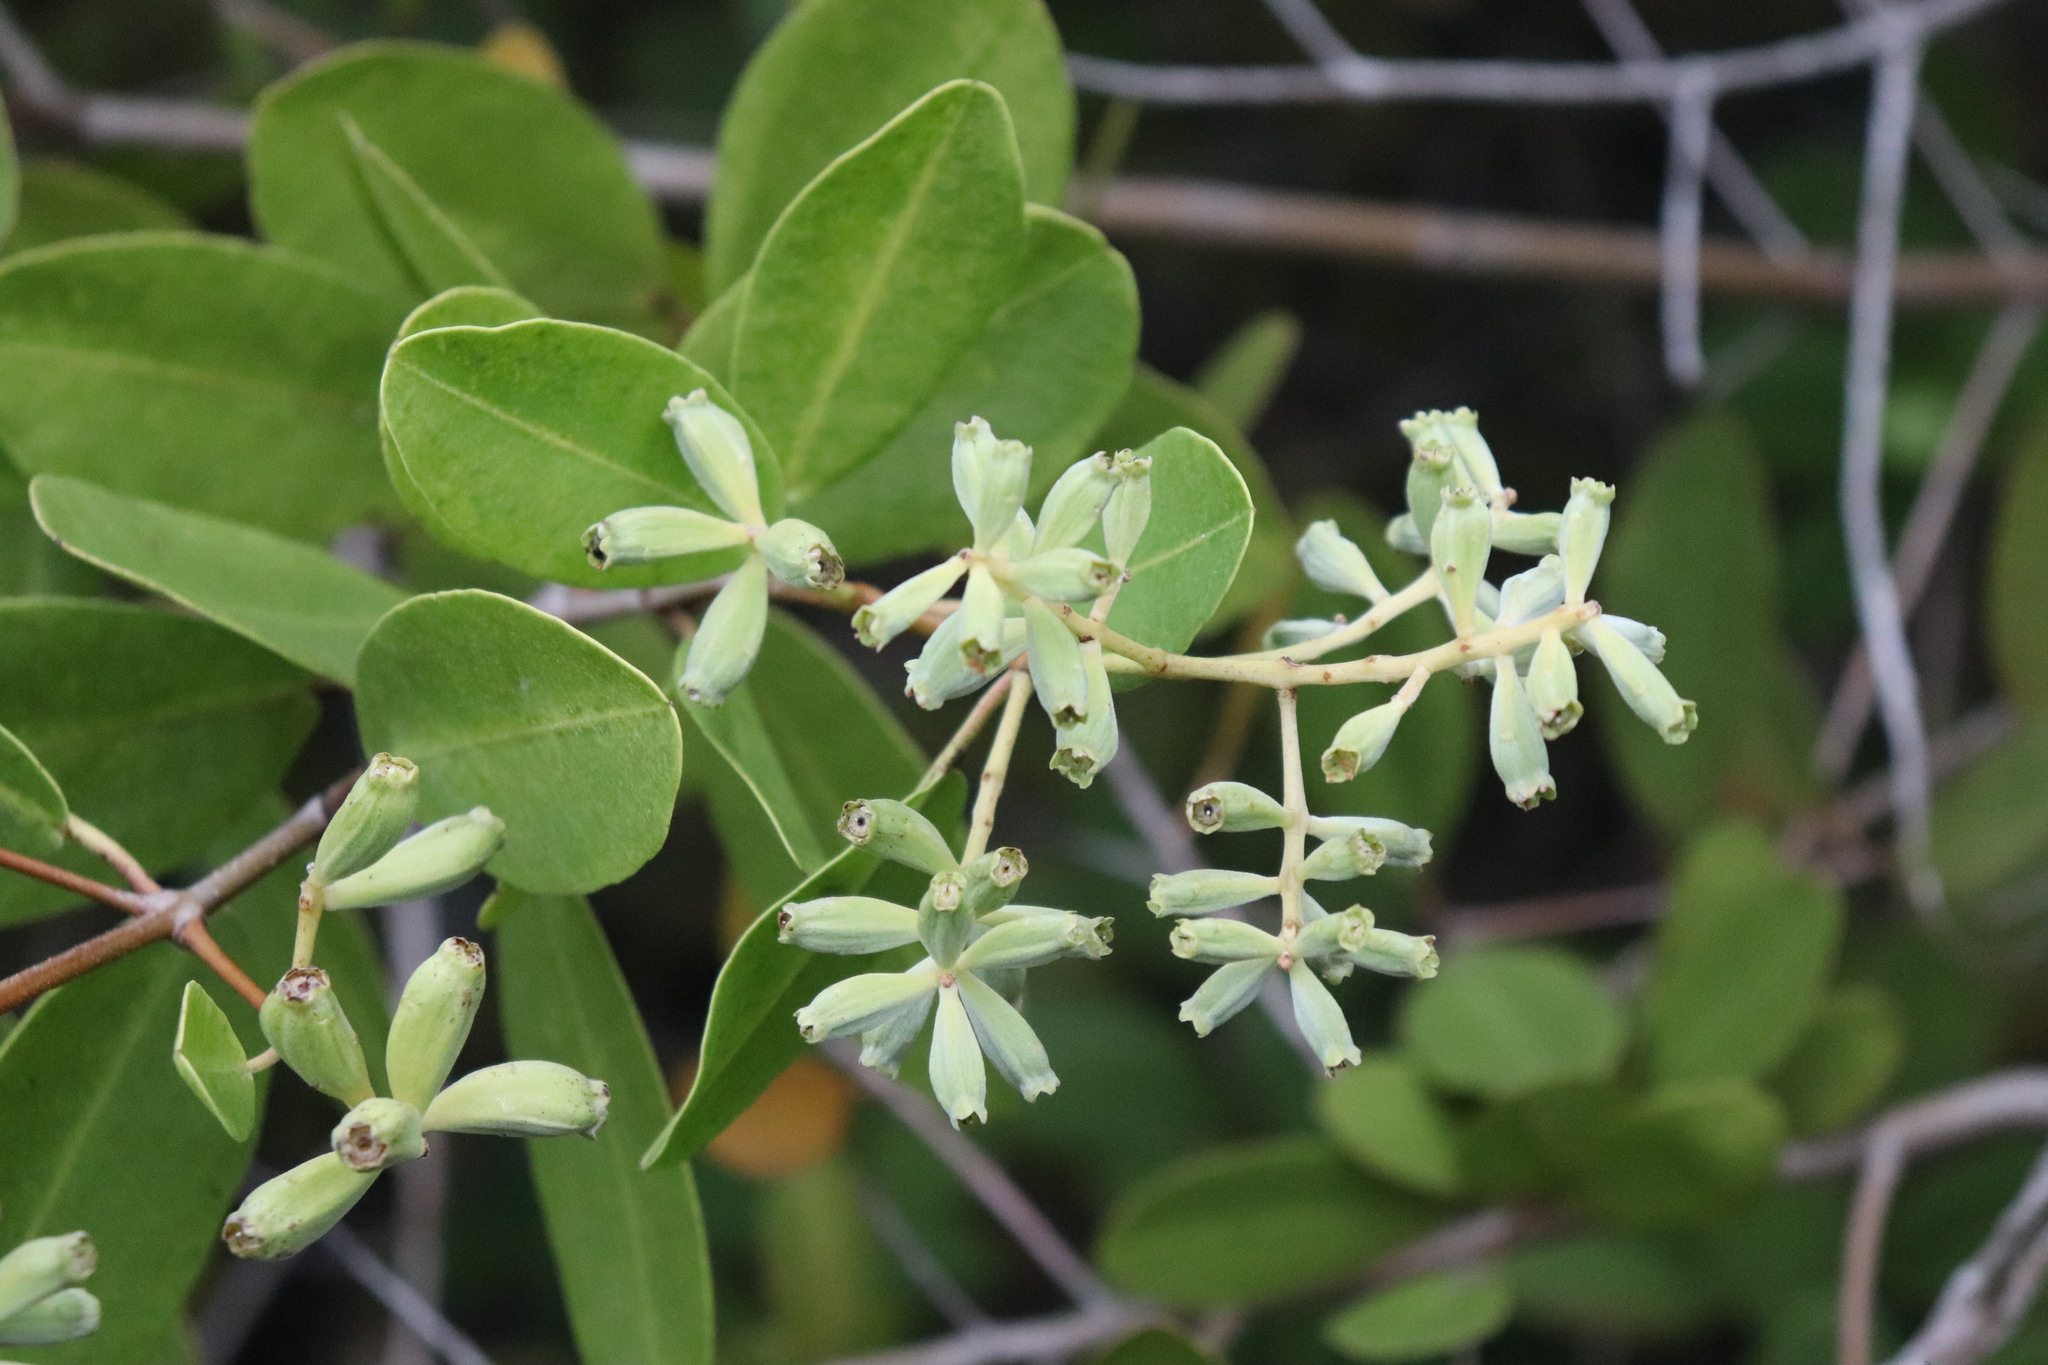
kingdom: Plantae
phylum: Tracheophyta
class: Magnoliopsida
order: Myrtales
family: Combretaceae
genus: Laguncularia
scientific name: Laguncularia racemosa
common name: White mangrove
